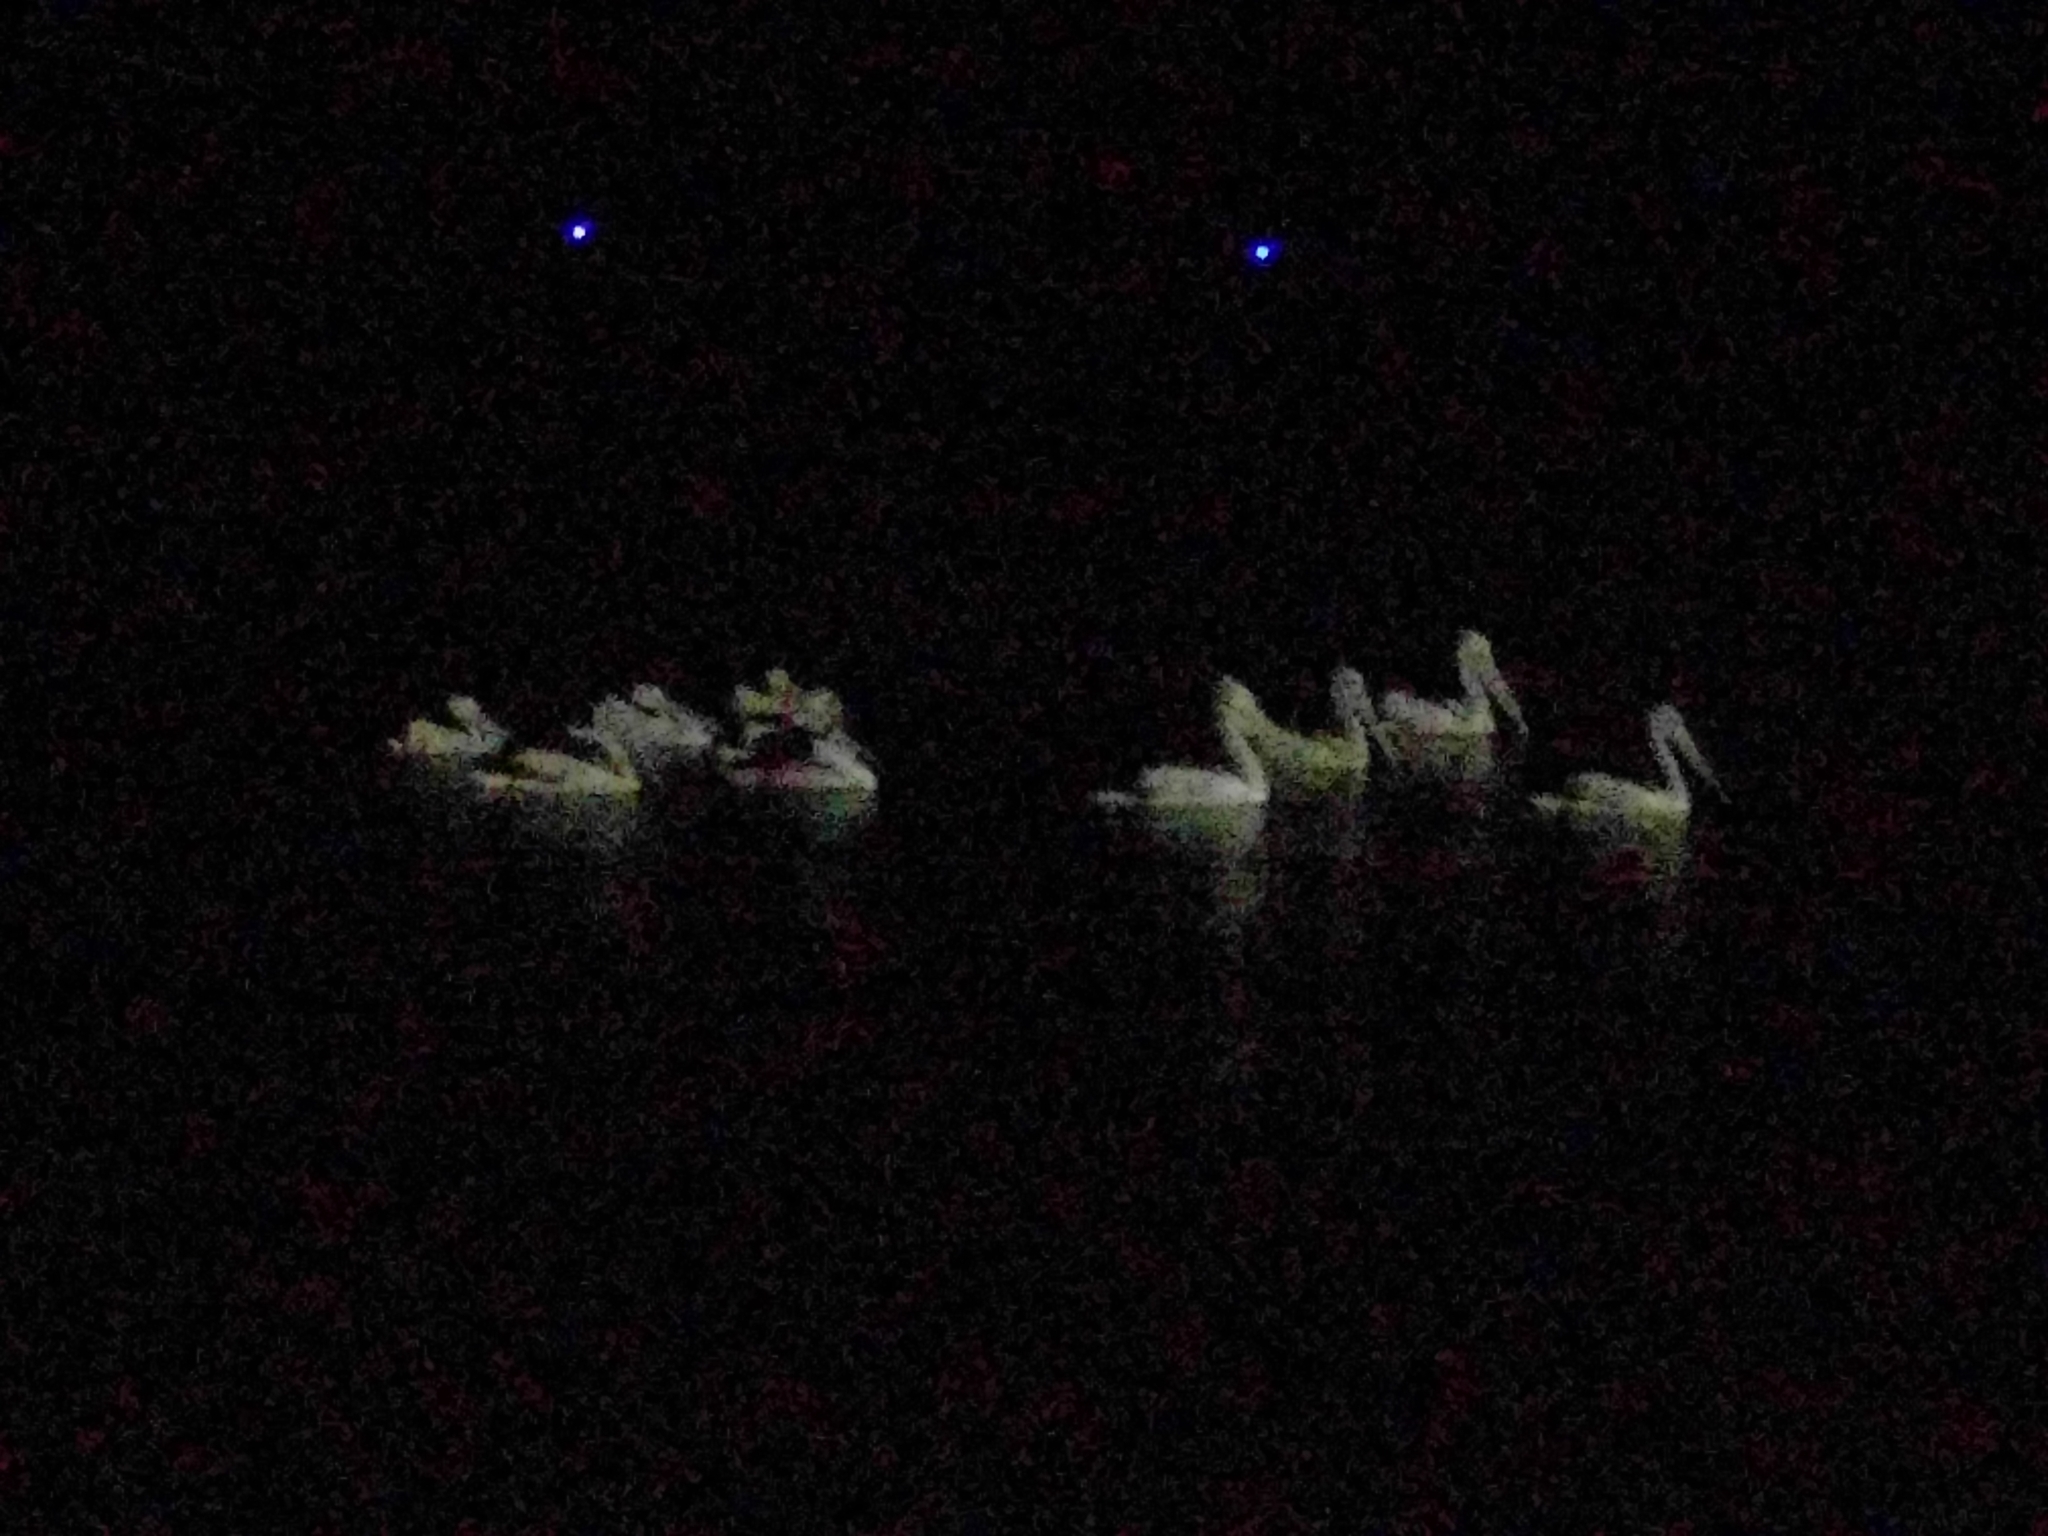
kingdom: Animalia
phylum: Chordata
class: Aves
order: Pelecaniformes
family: Pelecanidae
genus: Pelecanus
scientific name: Pelecanus conspicillatus
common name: Australian pelican
